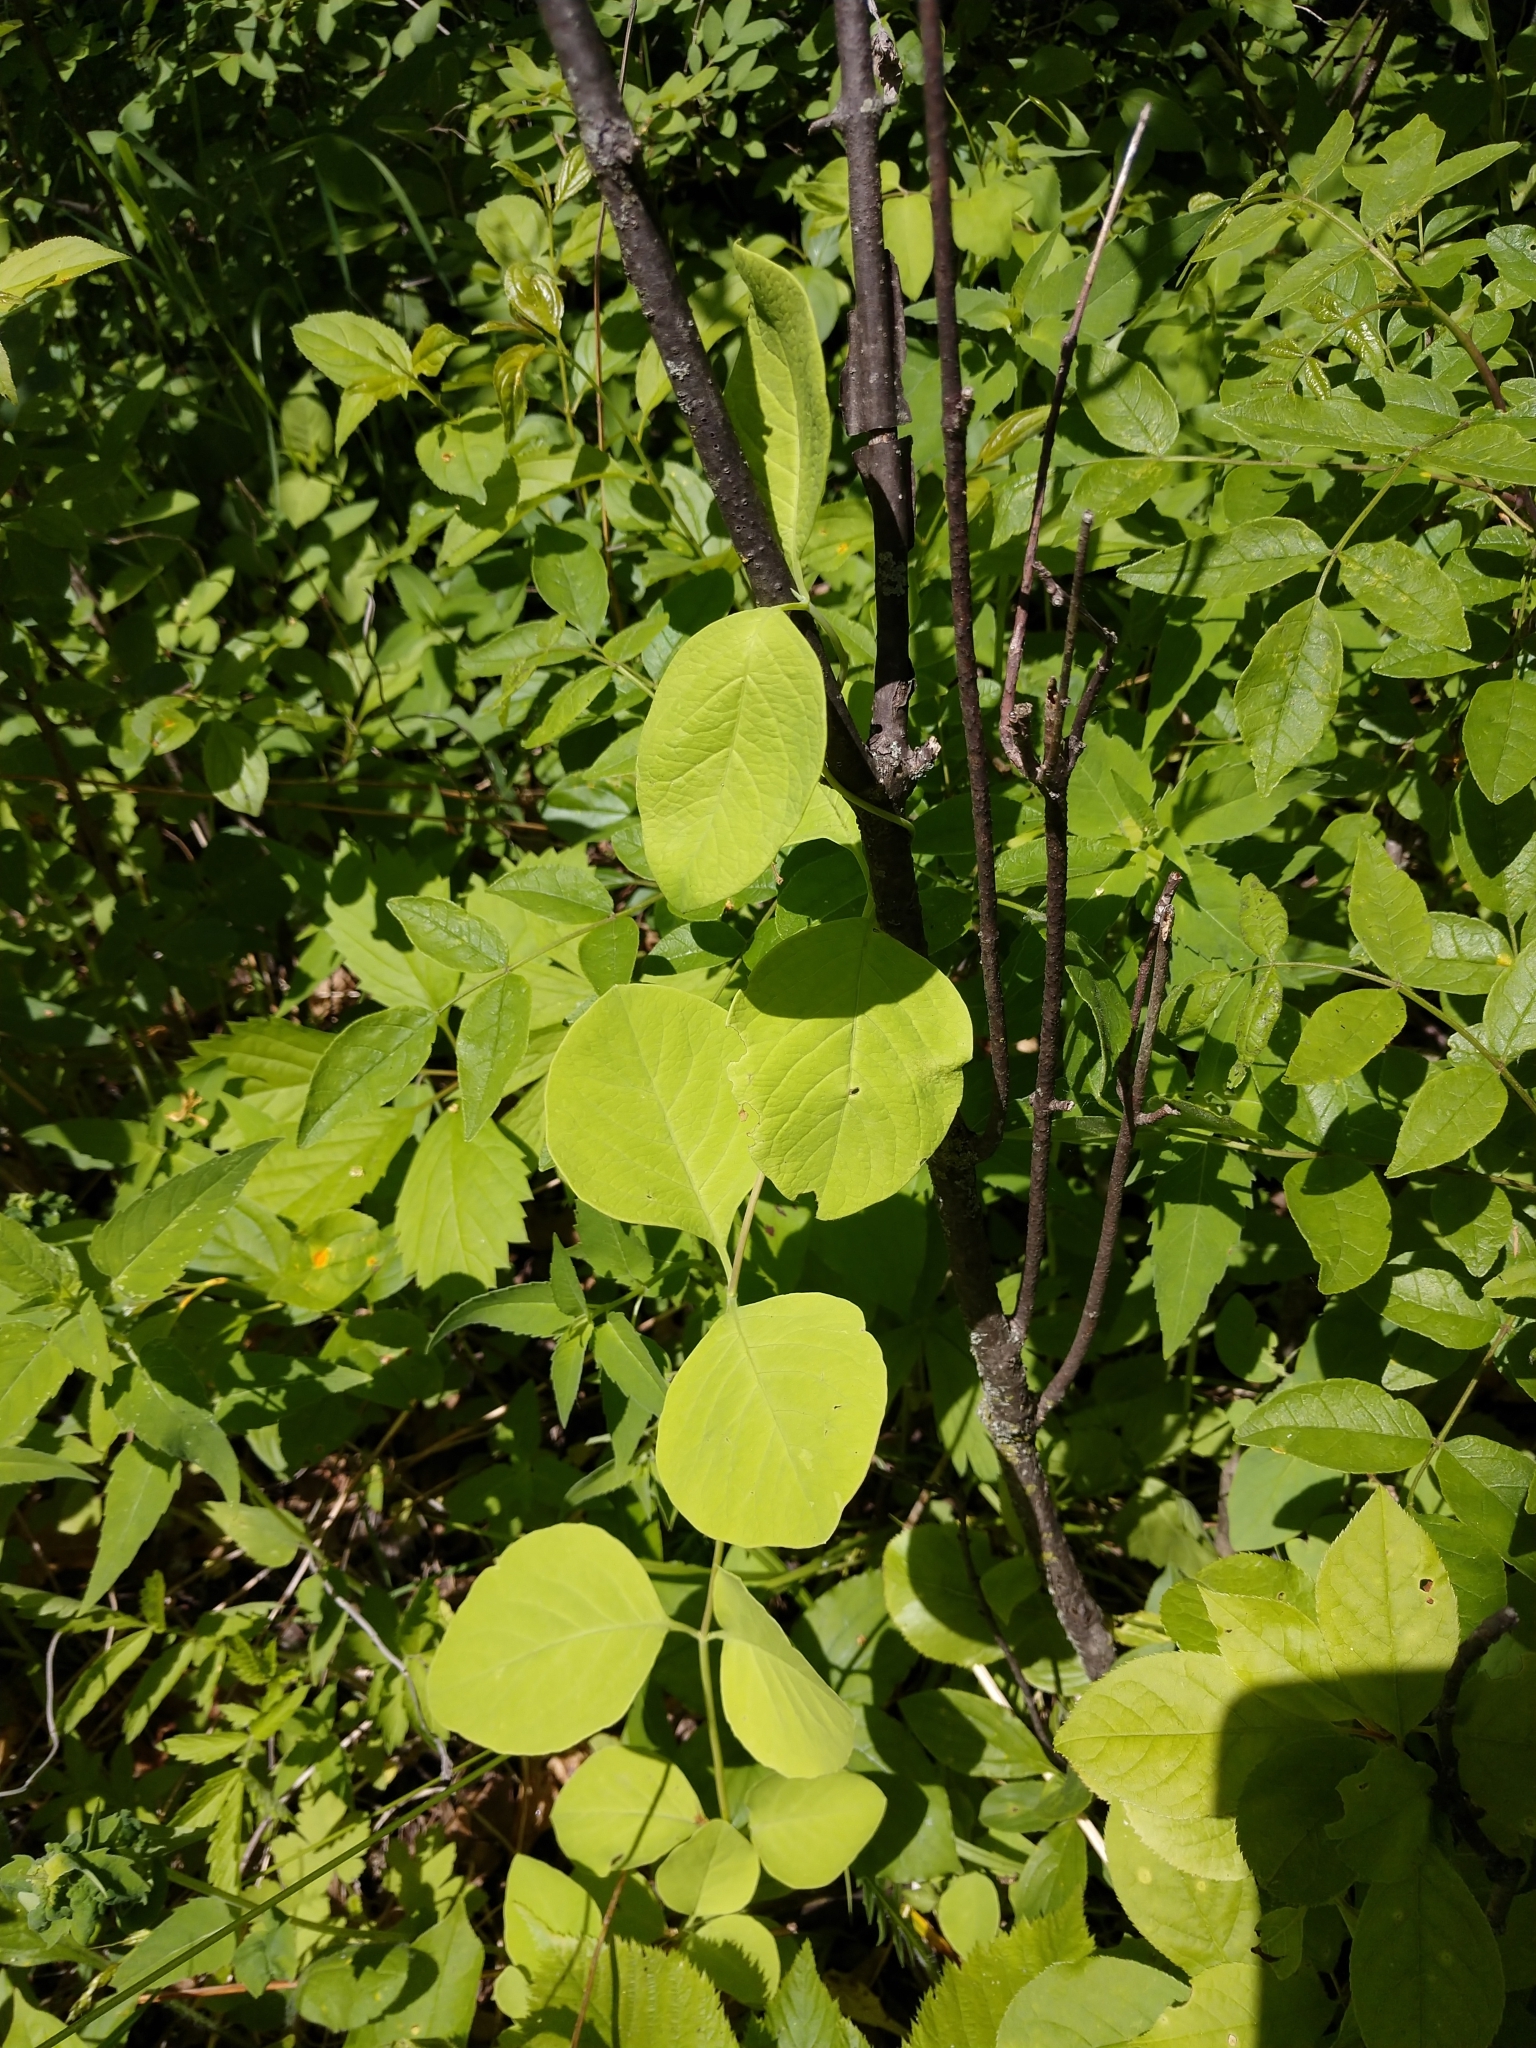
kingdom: Plantae
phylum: Tracheophyta
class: Magnoliopsida
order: Dipsacales
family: Caprifoliaceae
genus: Lonicera
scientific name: Lonicera reticulata
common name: Grape honeysuckle
